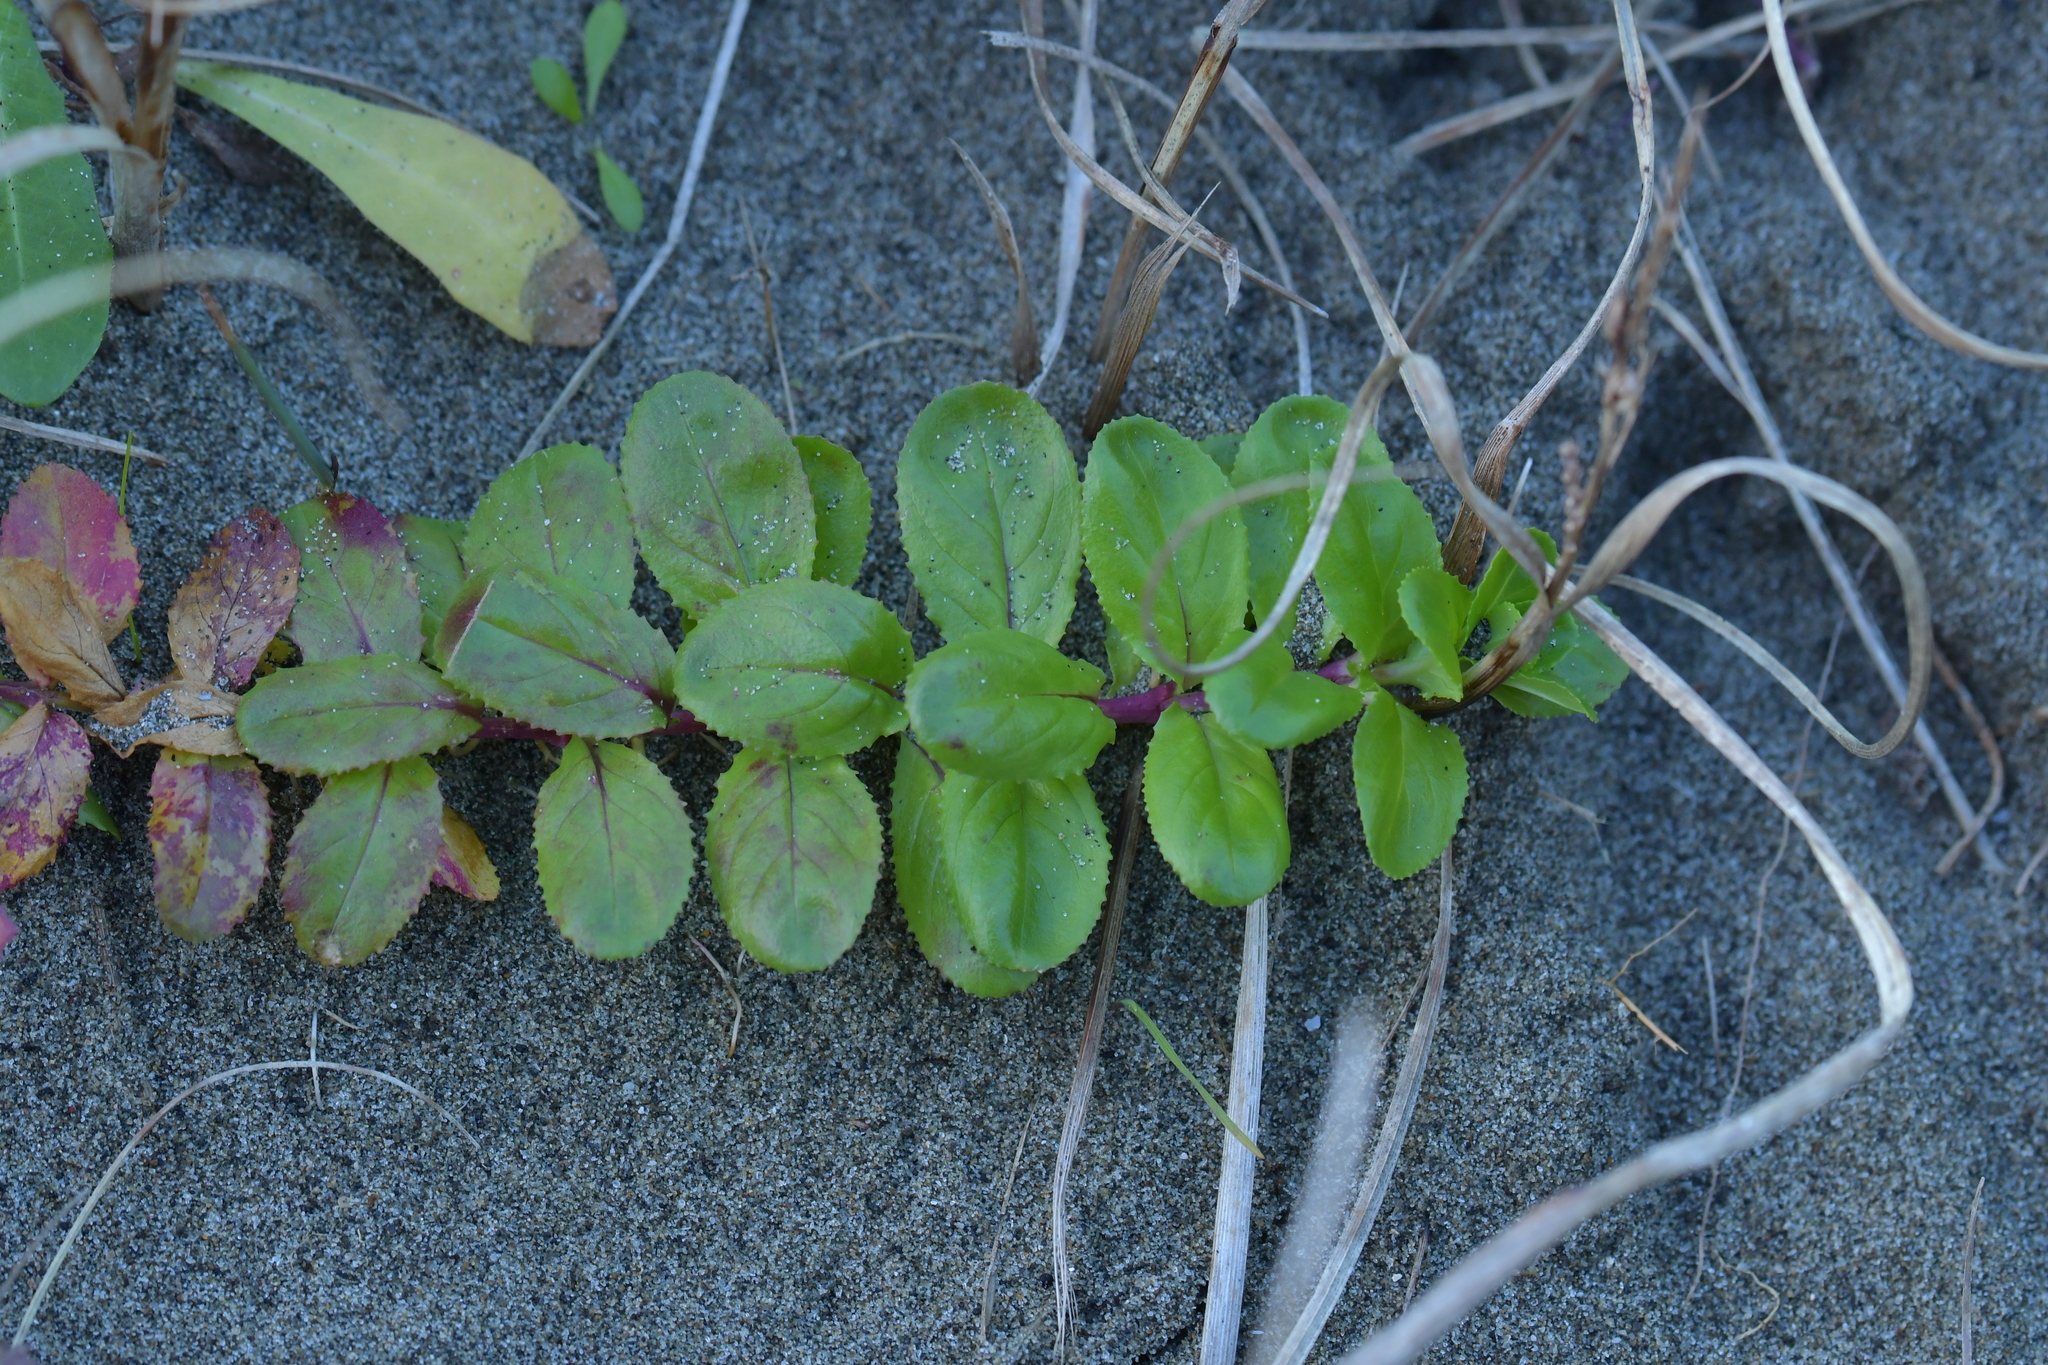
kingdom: Plantae
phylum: Tracheophyta
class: Magnoliopsida
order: Myrtales
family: Onagraceae
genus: Epilobium
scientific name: Epilobium billardiereanum
